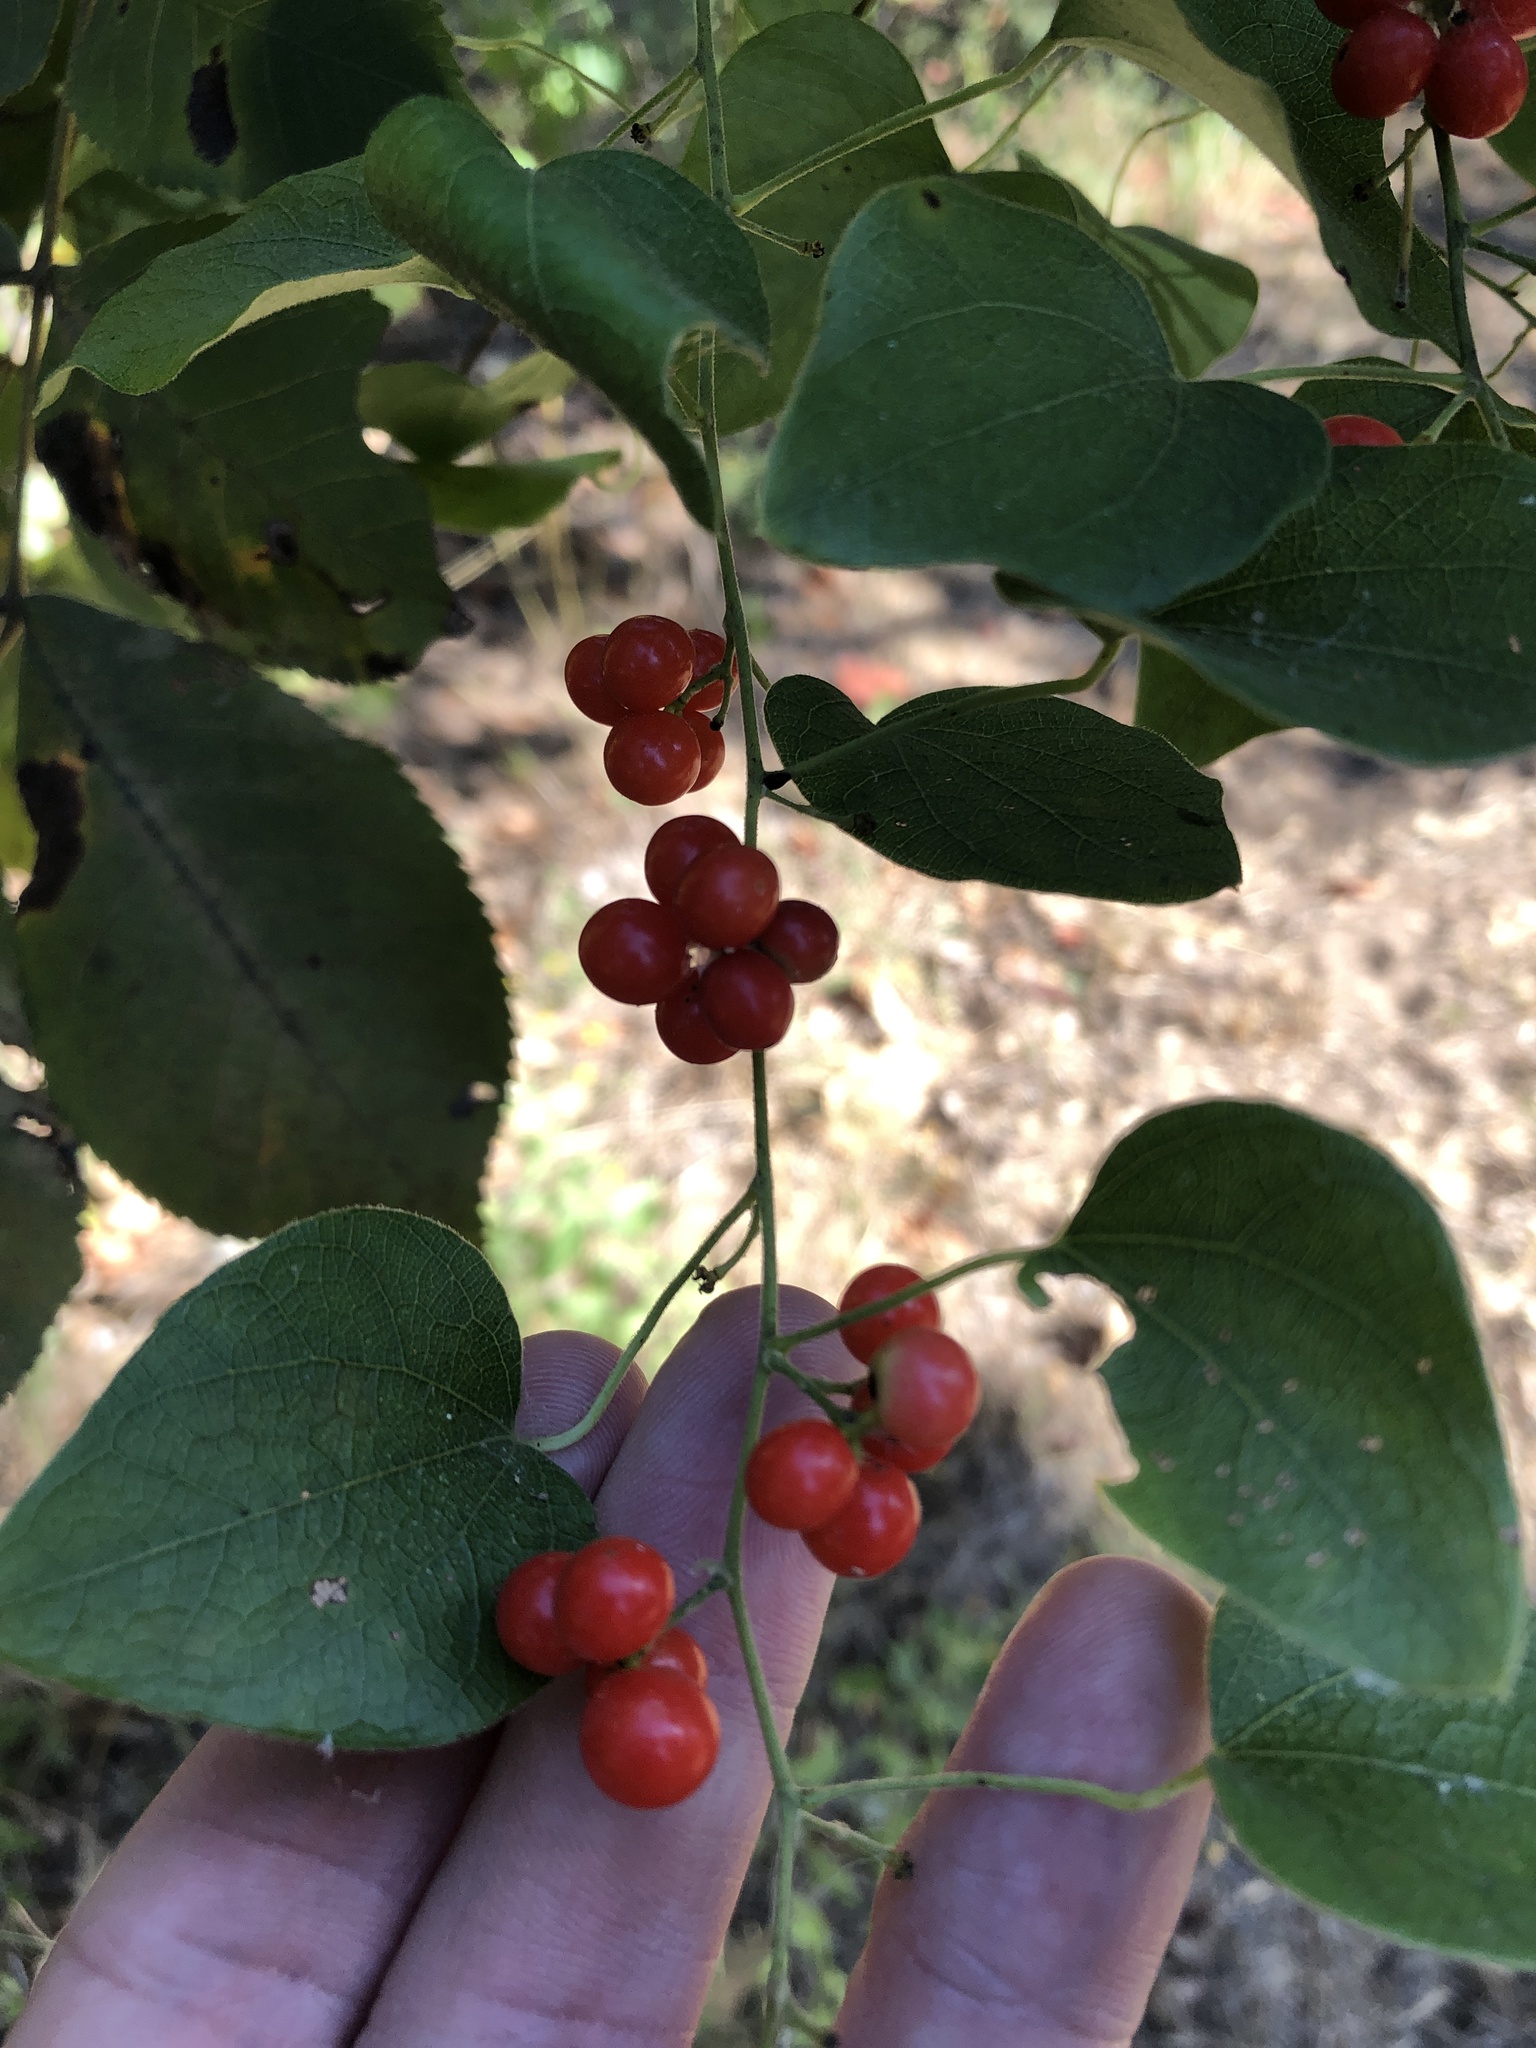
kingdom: Plantae
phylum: Tracheophyta
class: Magnoliopsida
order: Ranunculales
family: Menispermaceae
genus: Cocculus
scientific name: Cocculus carolinus
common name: Carolina moonseed
